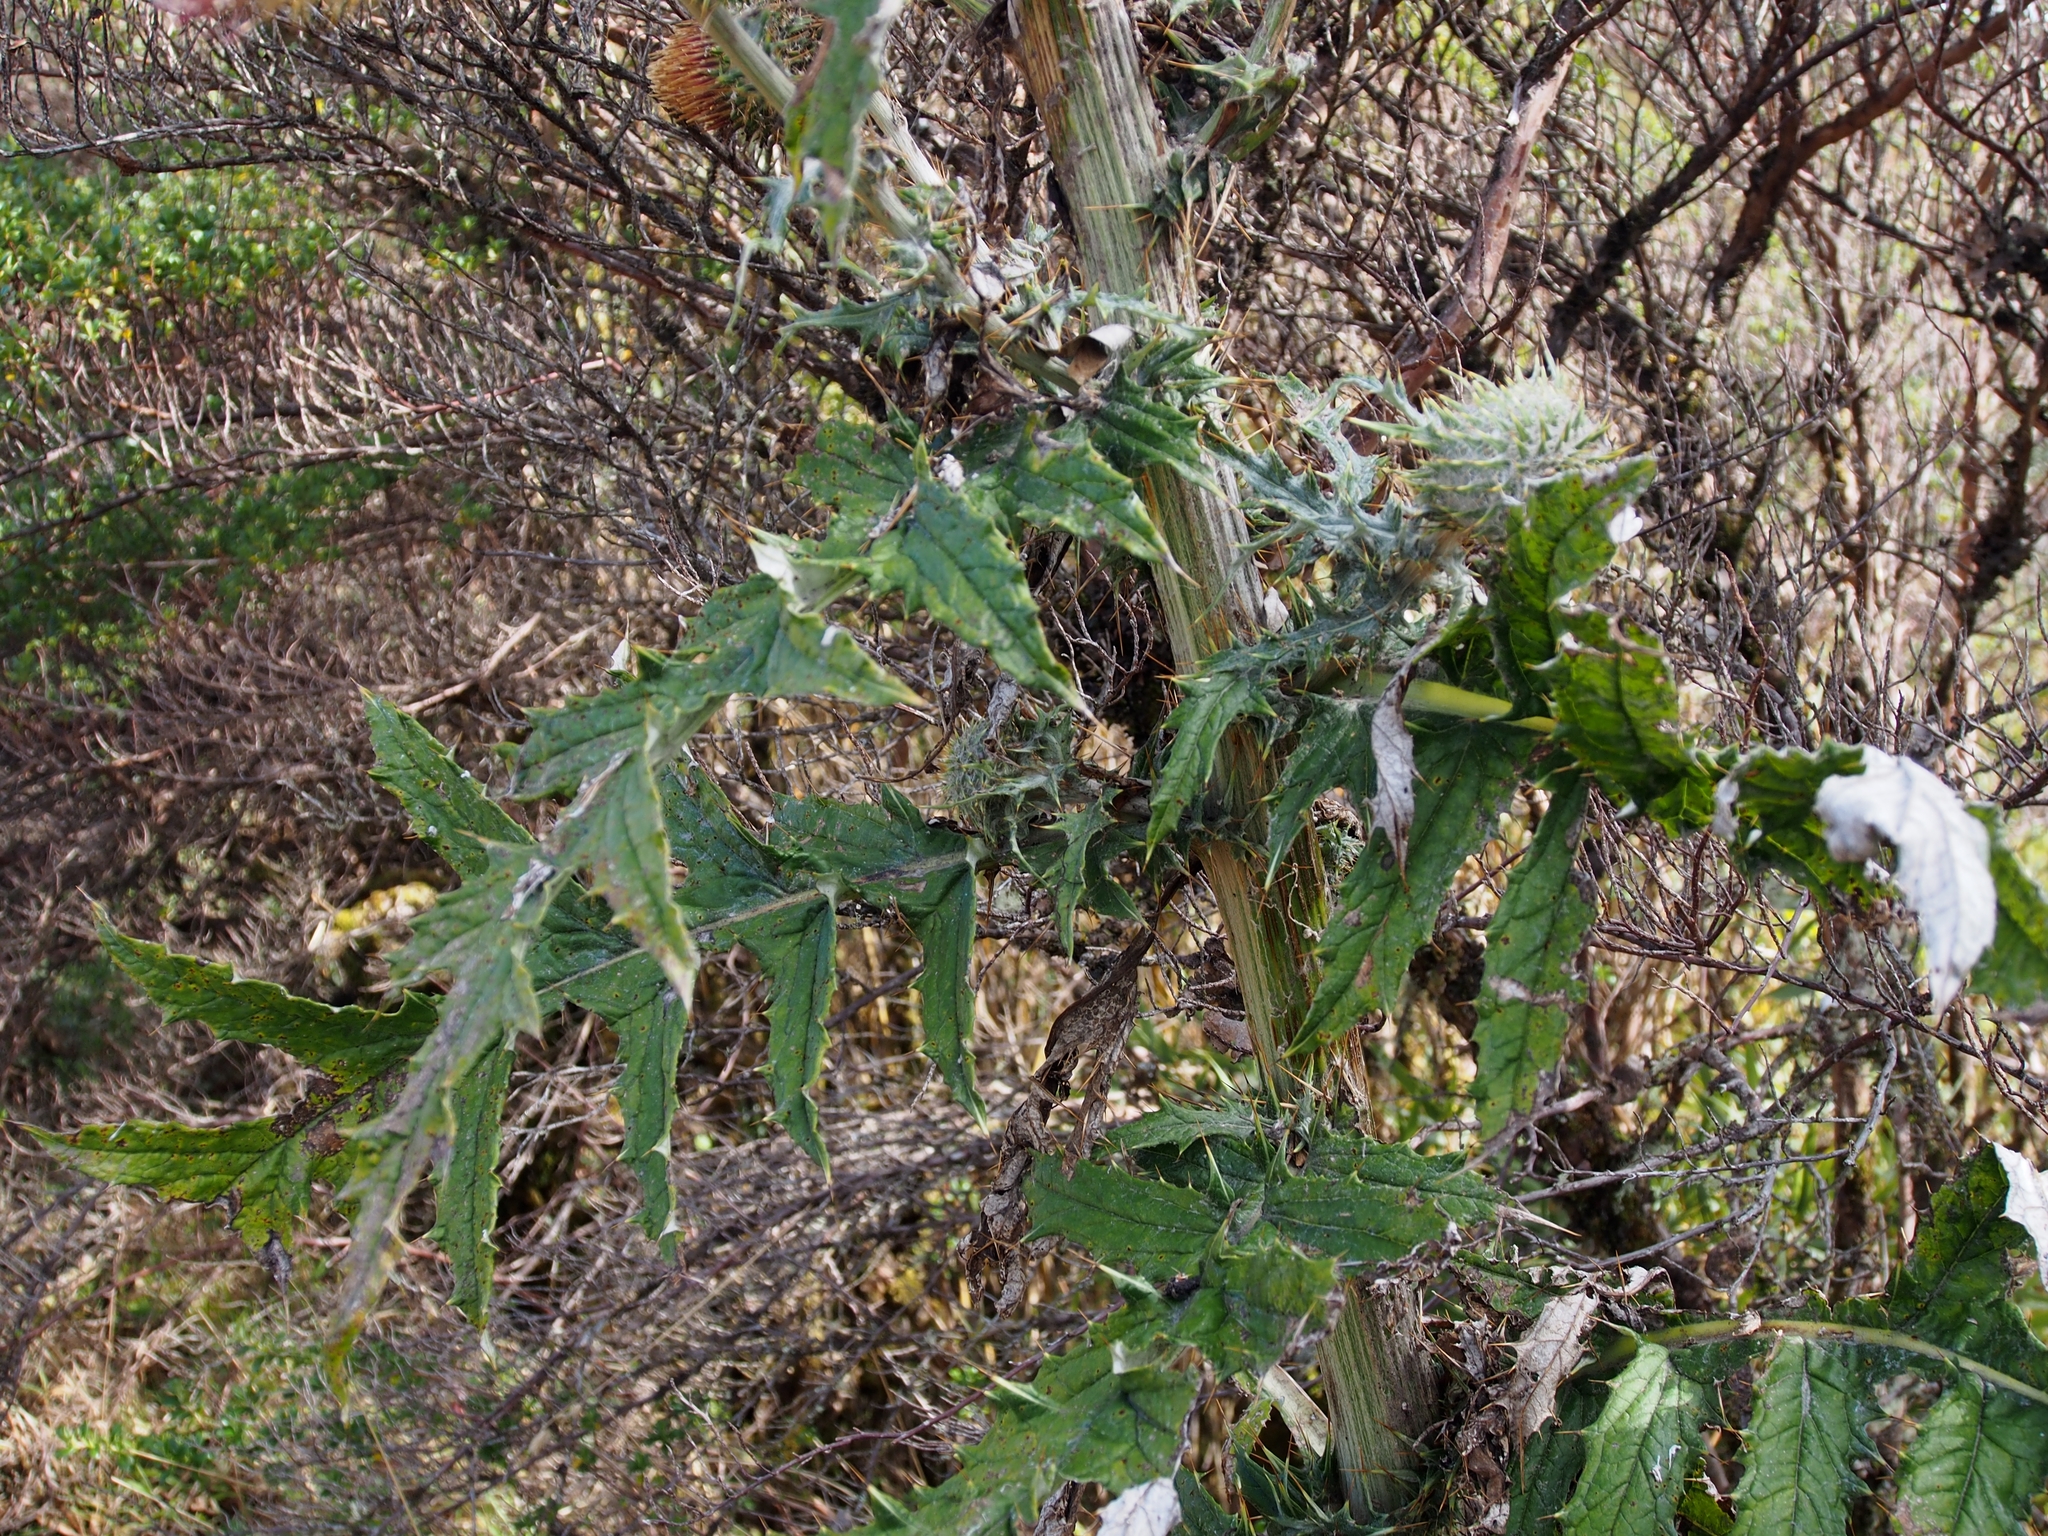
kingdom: Plantae
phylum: Tracheophyta
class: Magnoliopsida
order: Asterales
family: Asteraceae
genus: Cirsium
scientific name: Cirsium subcoriaceum
